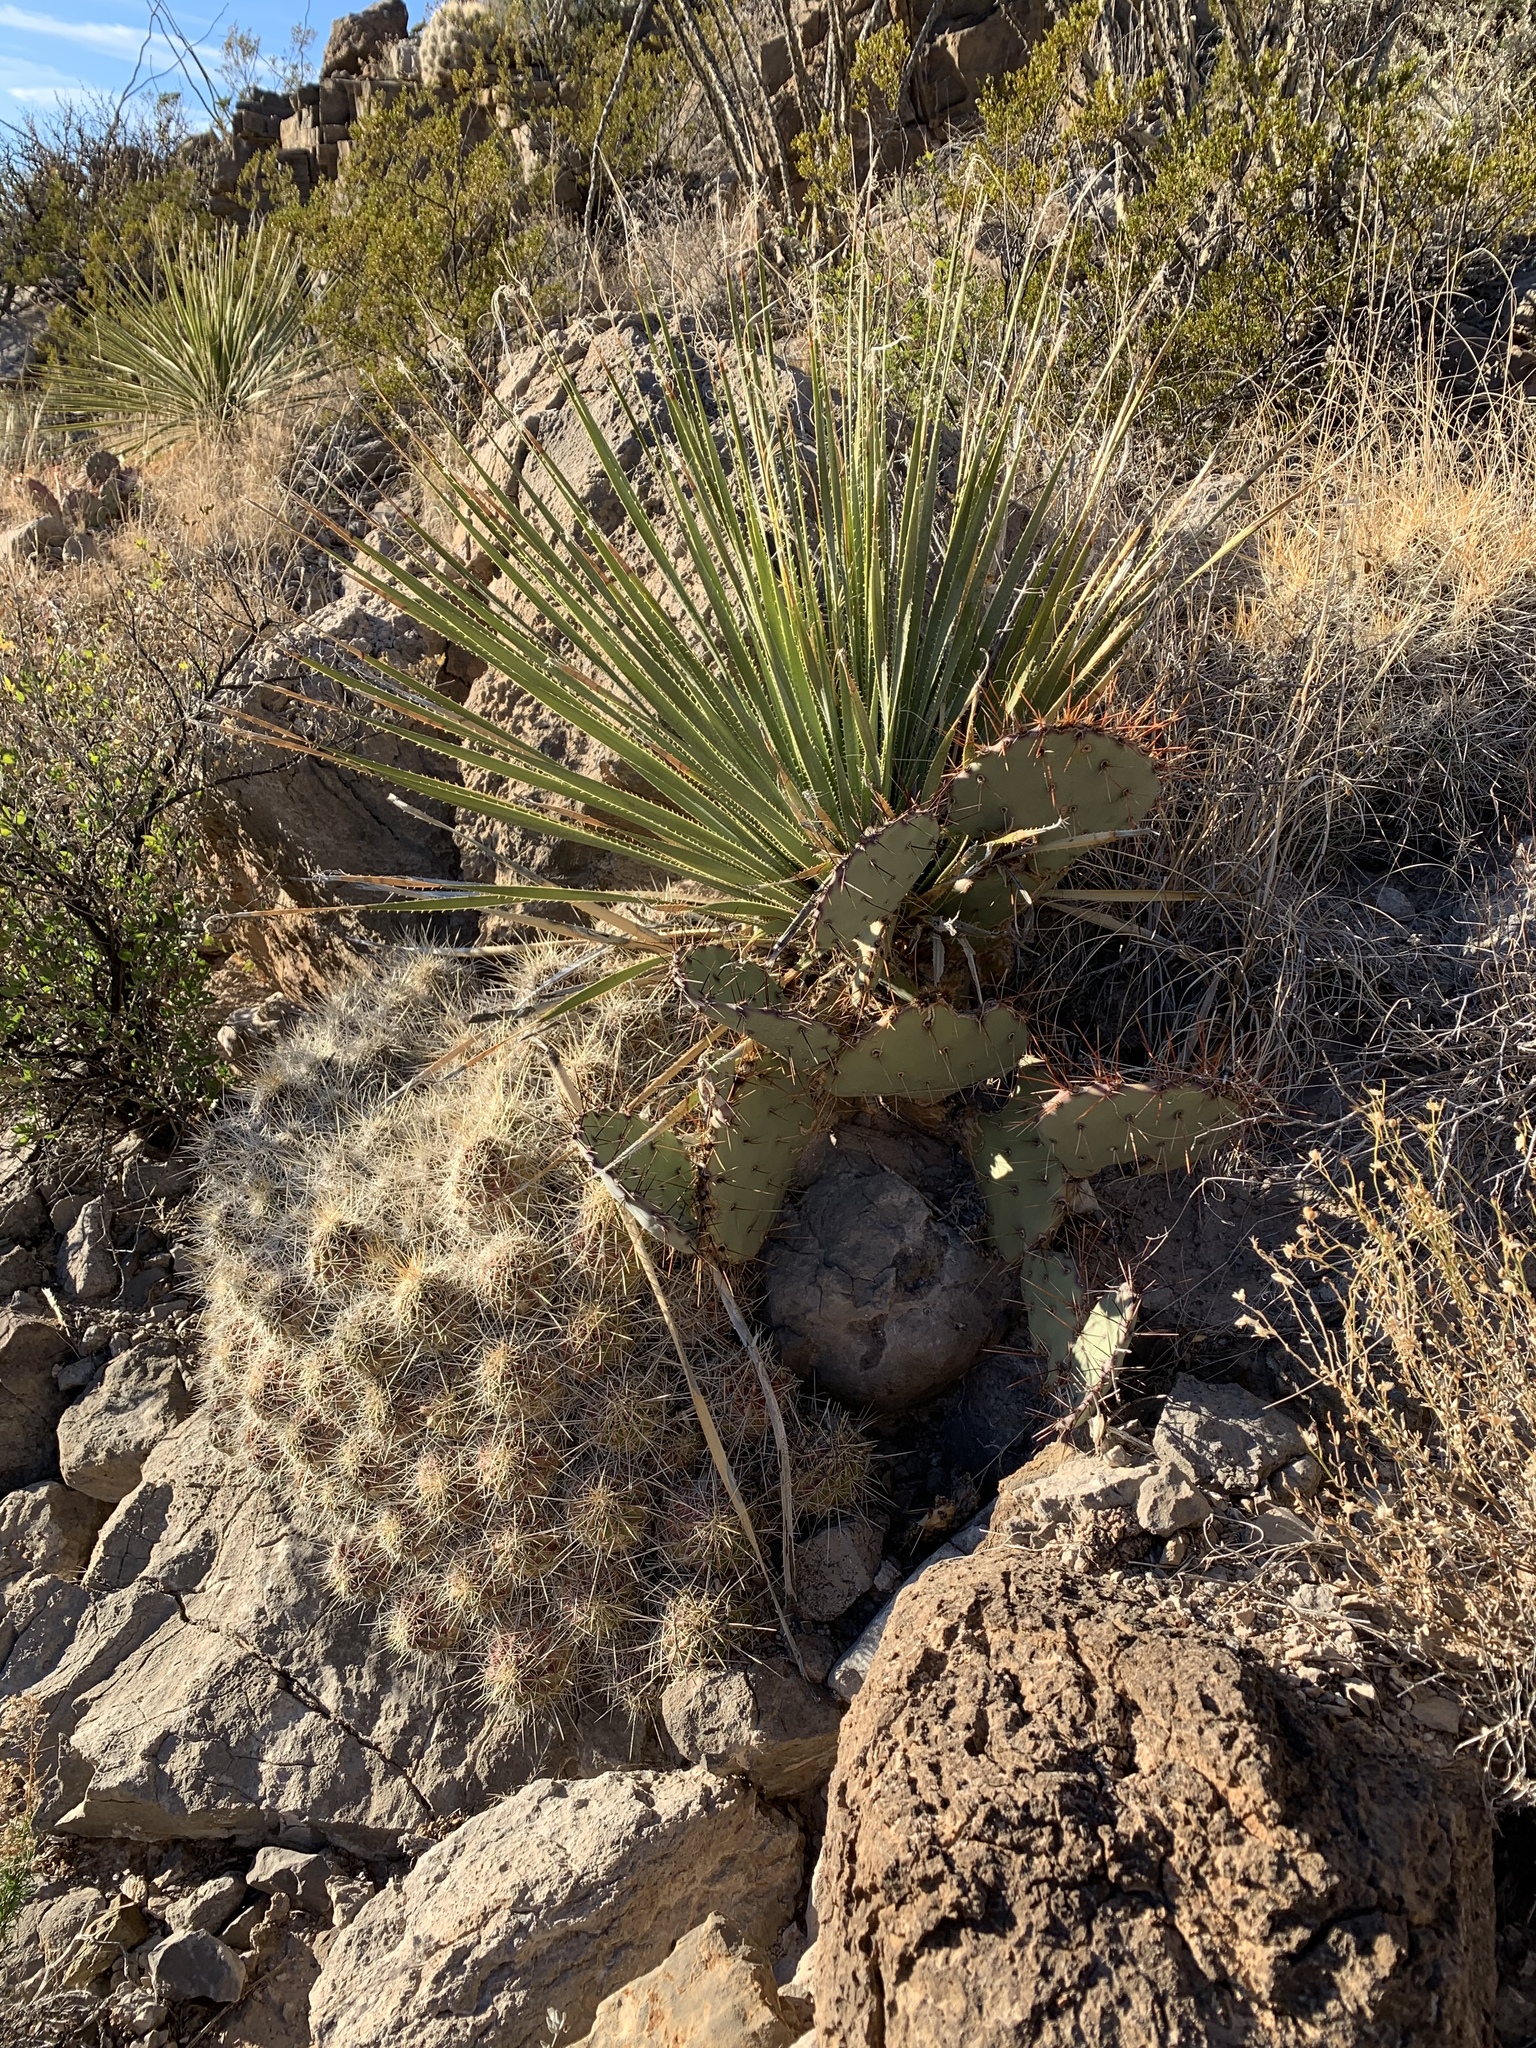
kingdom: Plantae
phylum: Tracheophyta
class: Magnoliopsida
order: Caryophyllales
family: Cactaceae
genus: Echinocereus
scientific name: Echinocereus stramineus
